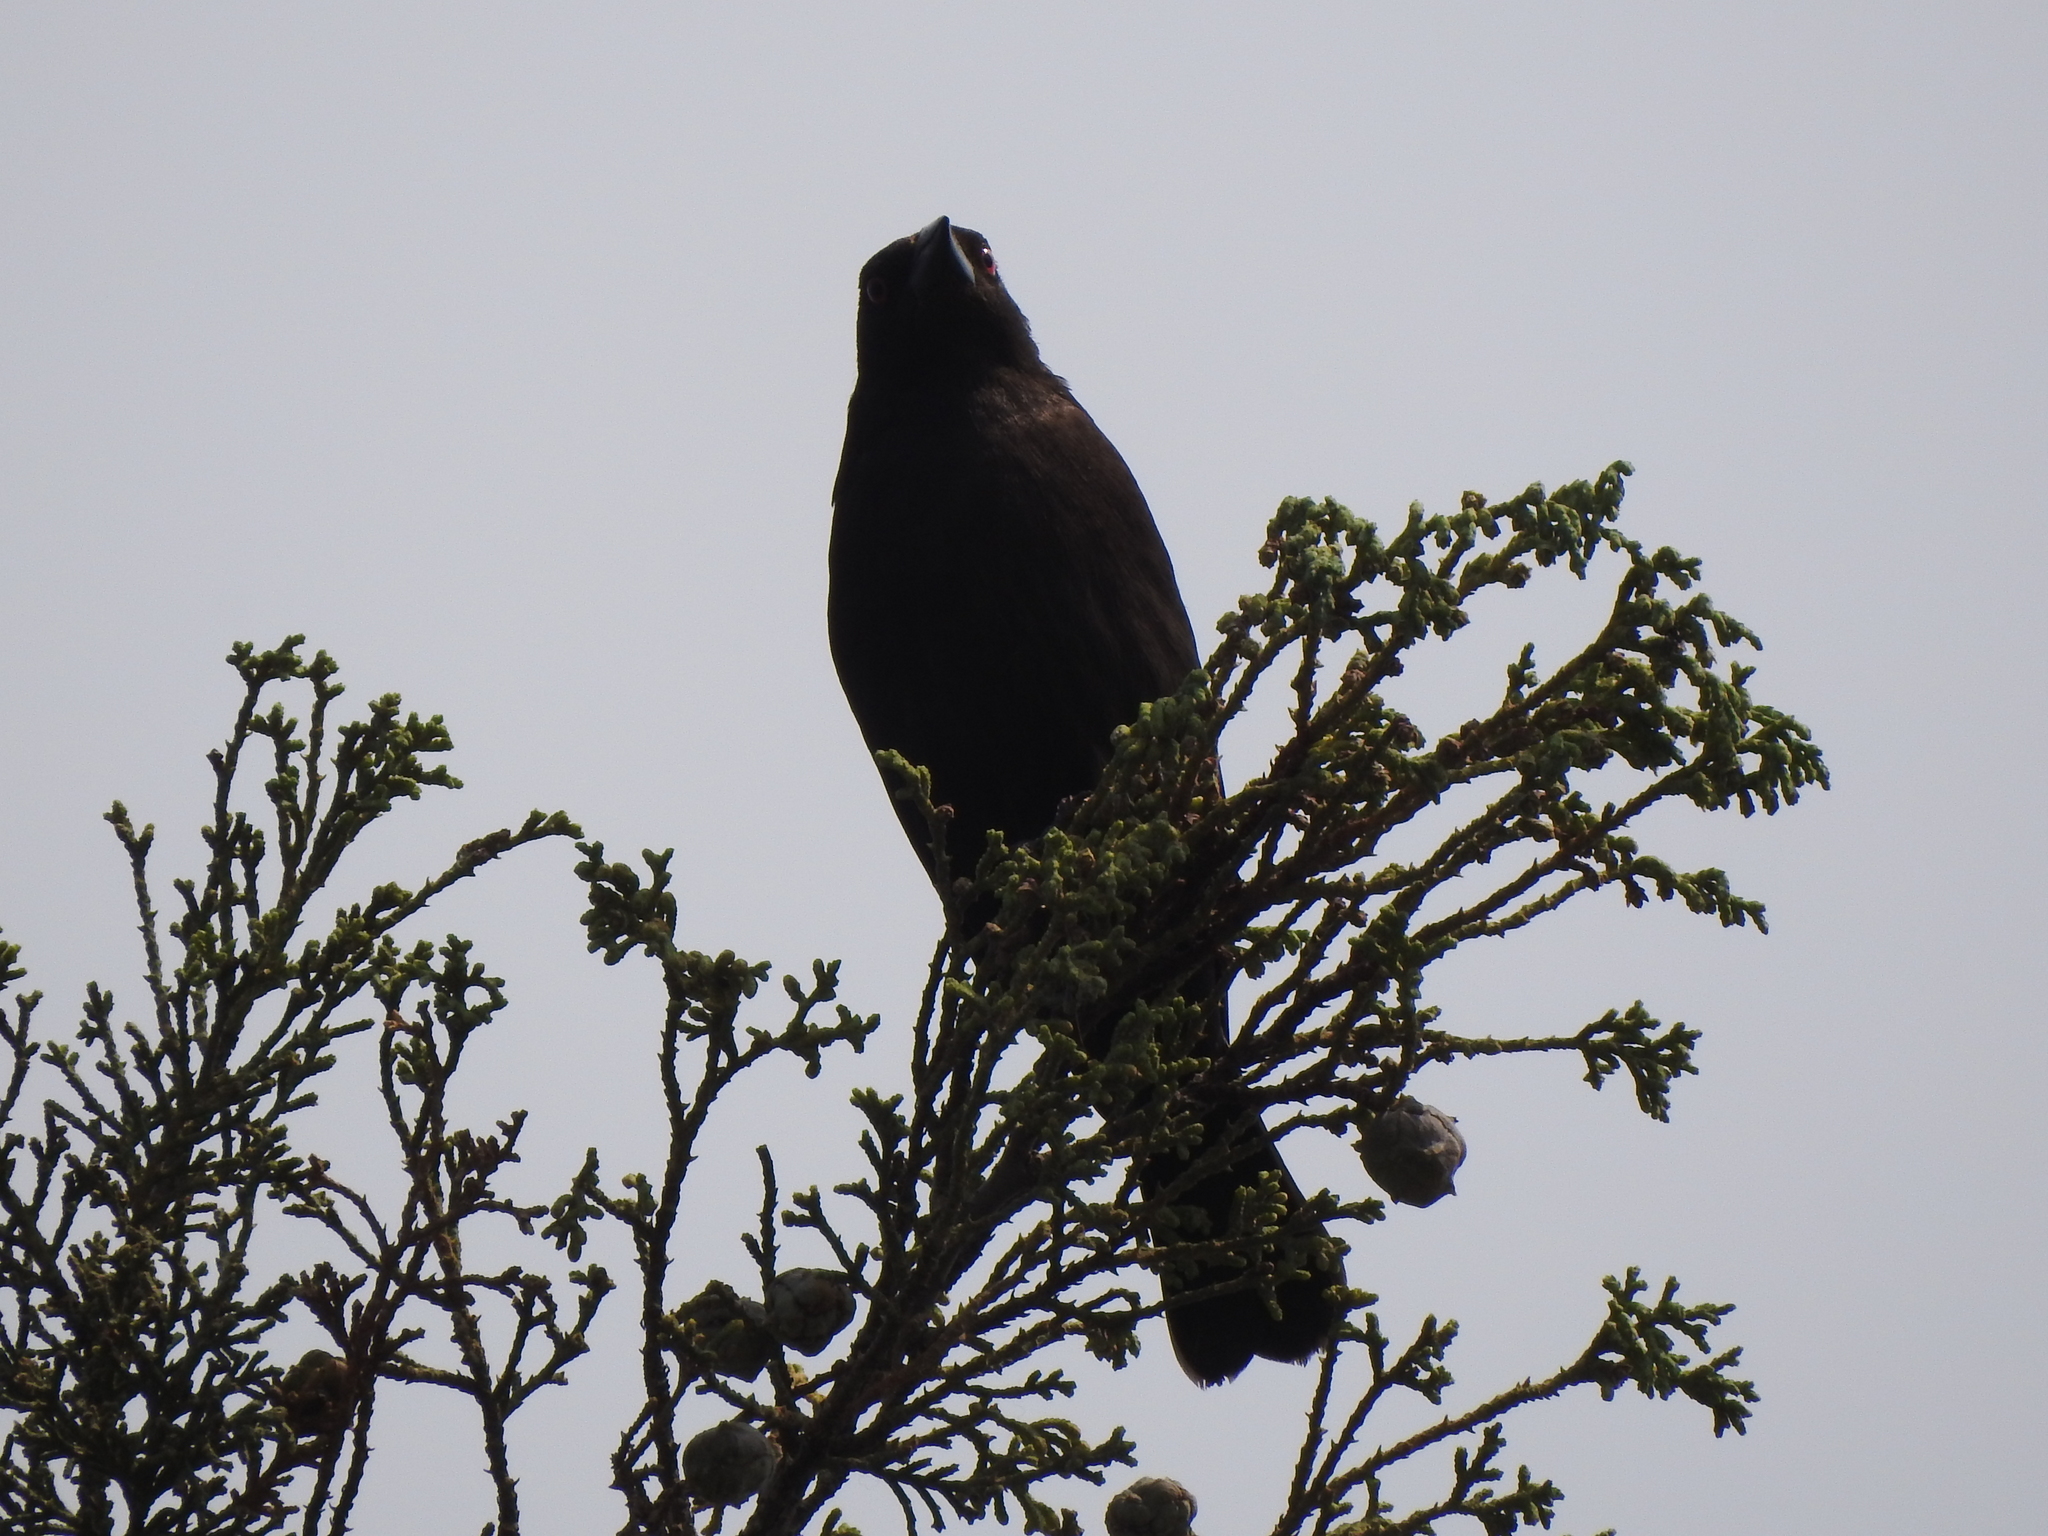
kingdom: Animalia
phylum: Chordata
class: Aves
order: Passeriformes
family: Icteridae
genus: Molothrus
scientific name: Molothrus aeneus
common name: Bronzed cowbird
